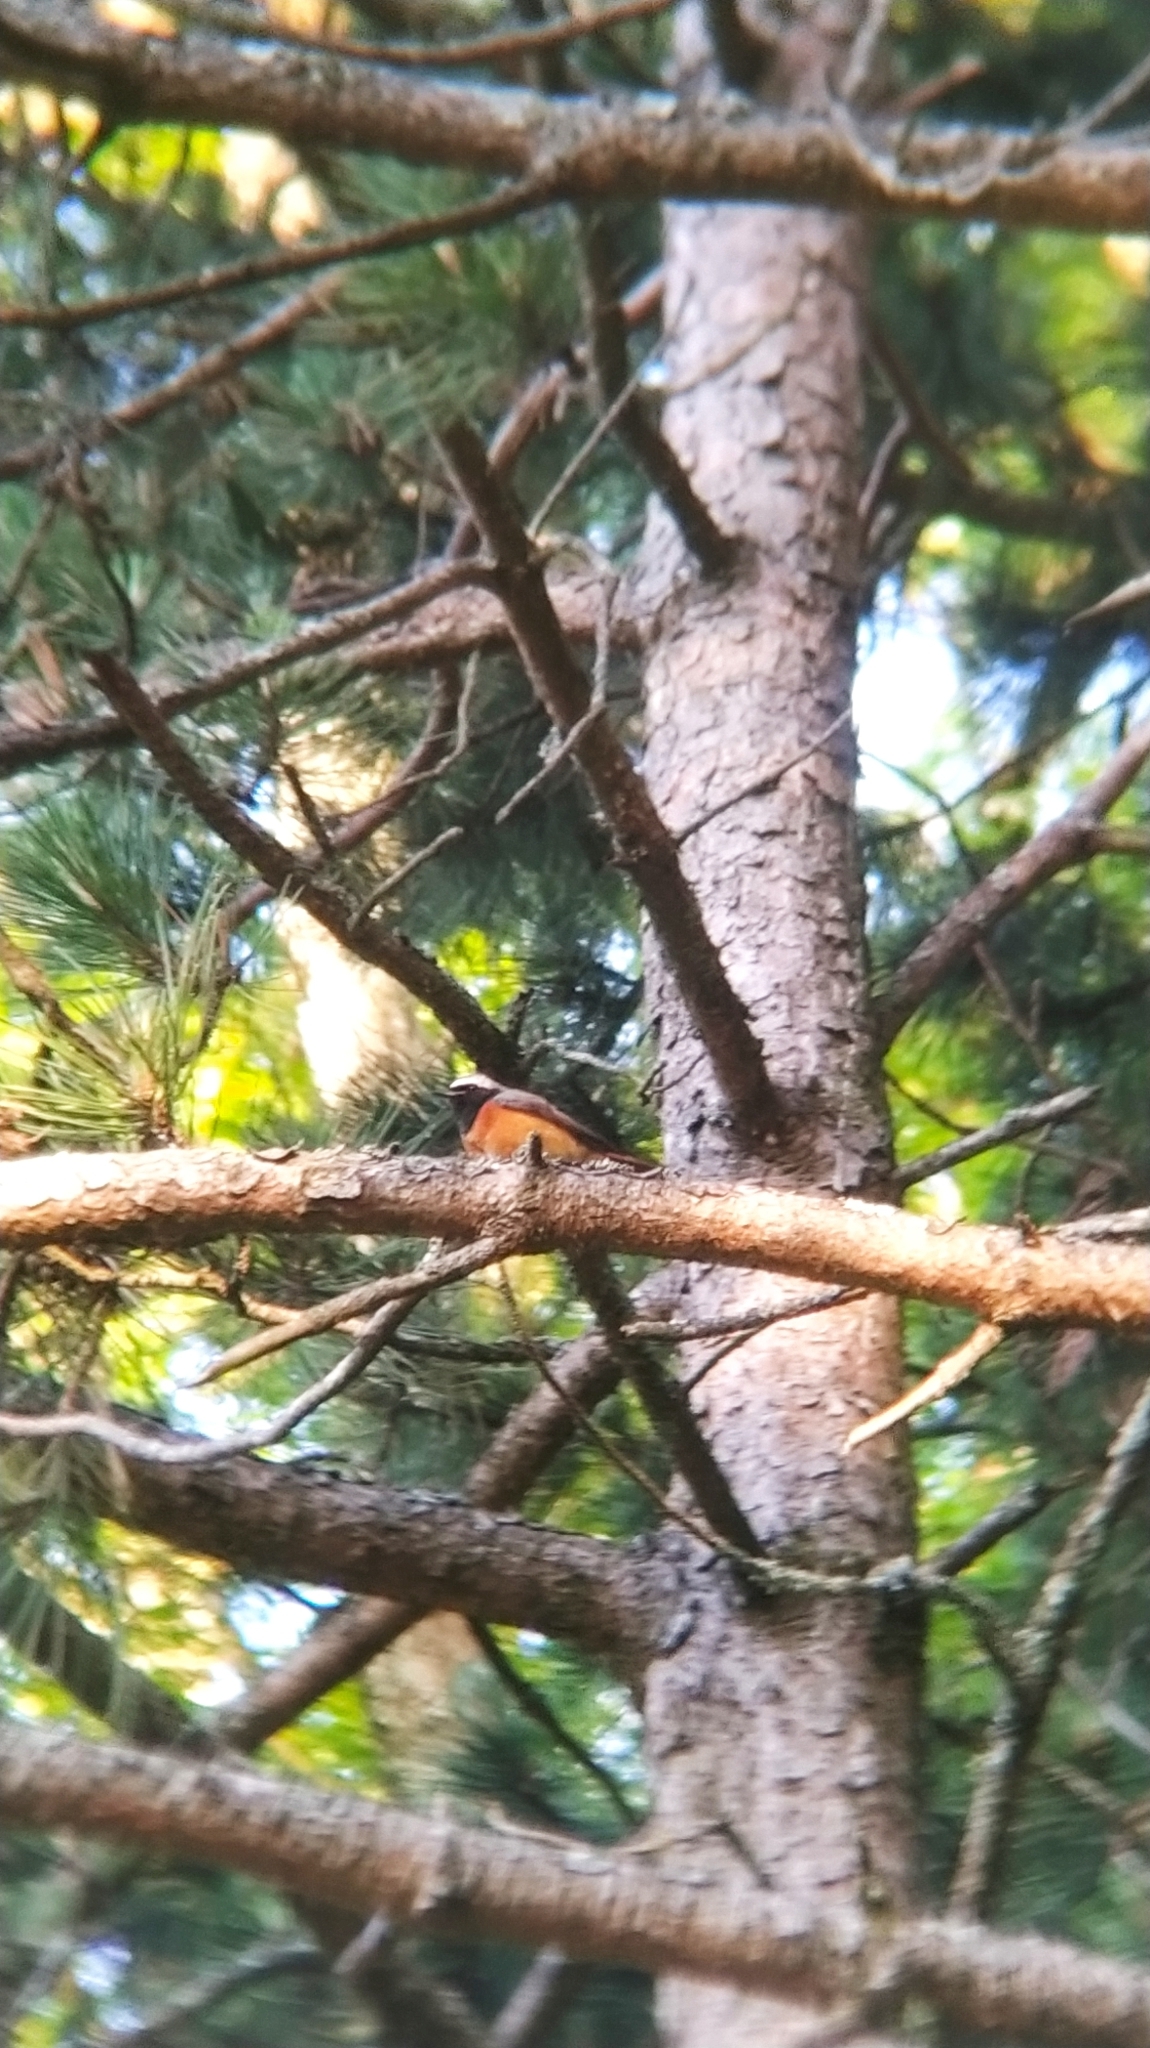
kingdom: Animalia
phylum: Chordata
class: Aves
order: Passeriformes
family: Muscicapidae
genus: Phoenicurus
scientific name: Phoenicurus phoenicurus
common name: Common redstart
